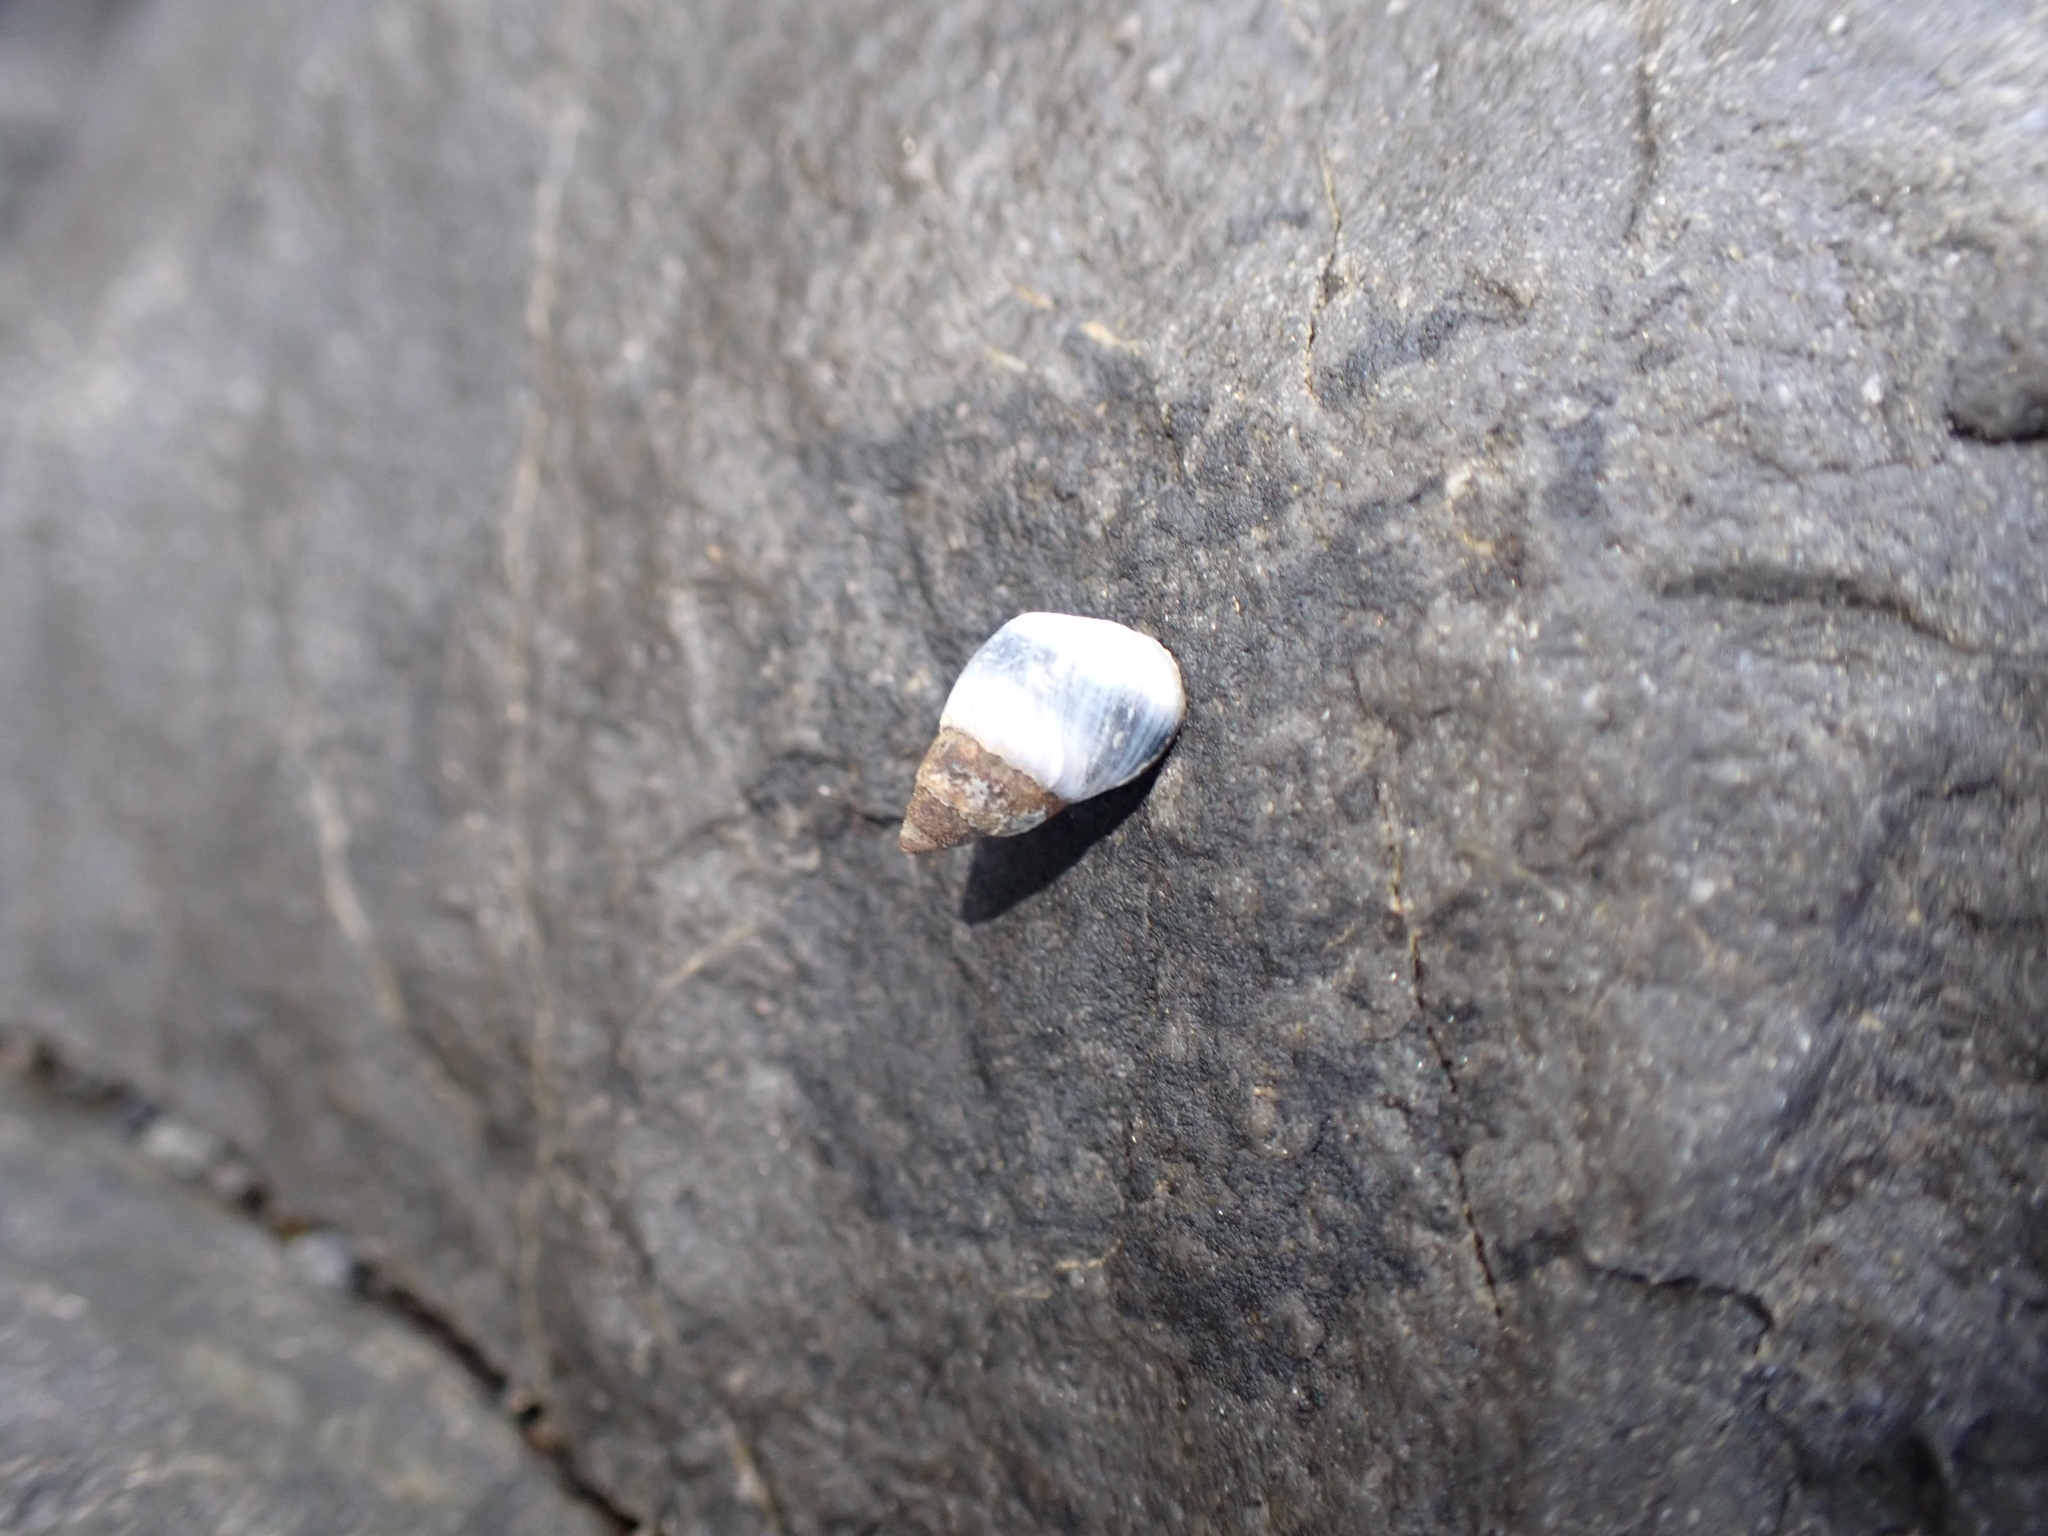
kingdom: Animalia
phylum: Mollusca
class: Gastropoda
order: Littorinimorpha
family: Littorinidae
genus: Austrolittorina
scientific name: Austrolittorina antipodum
